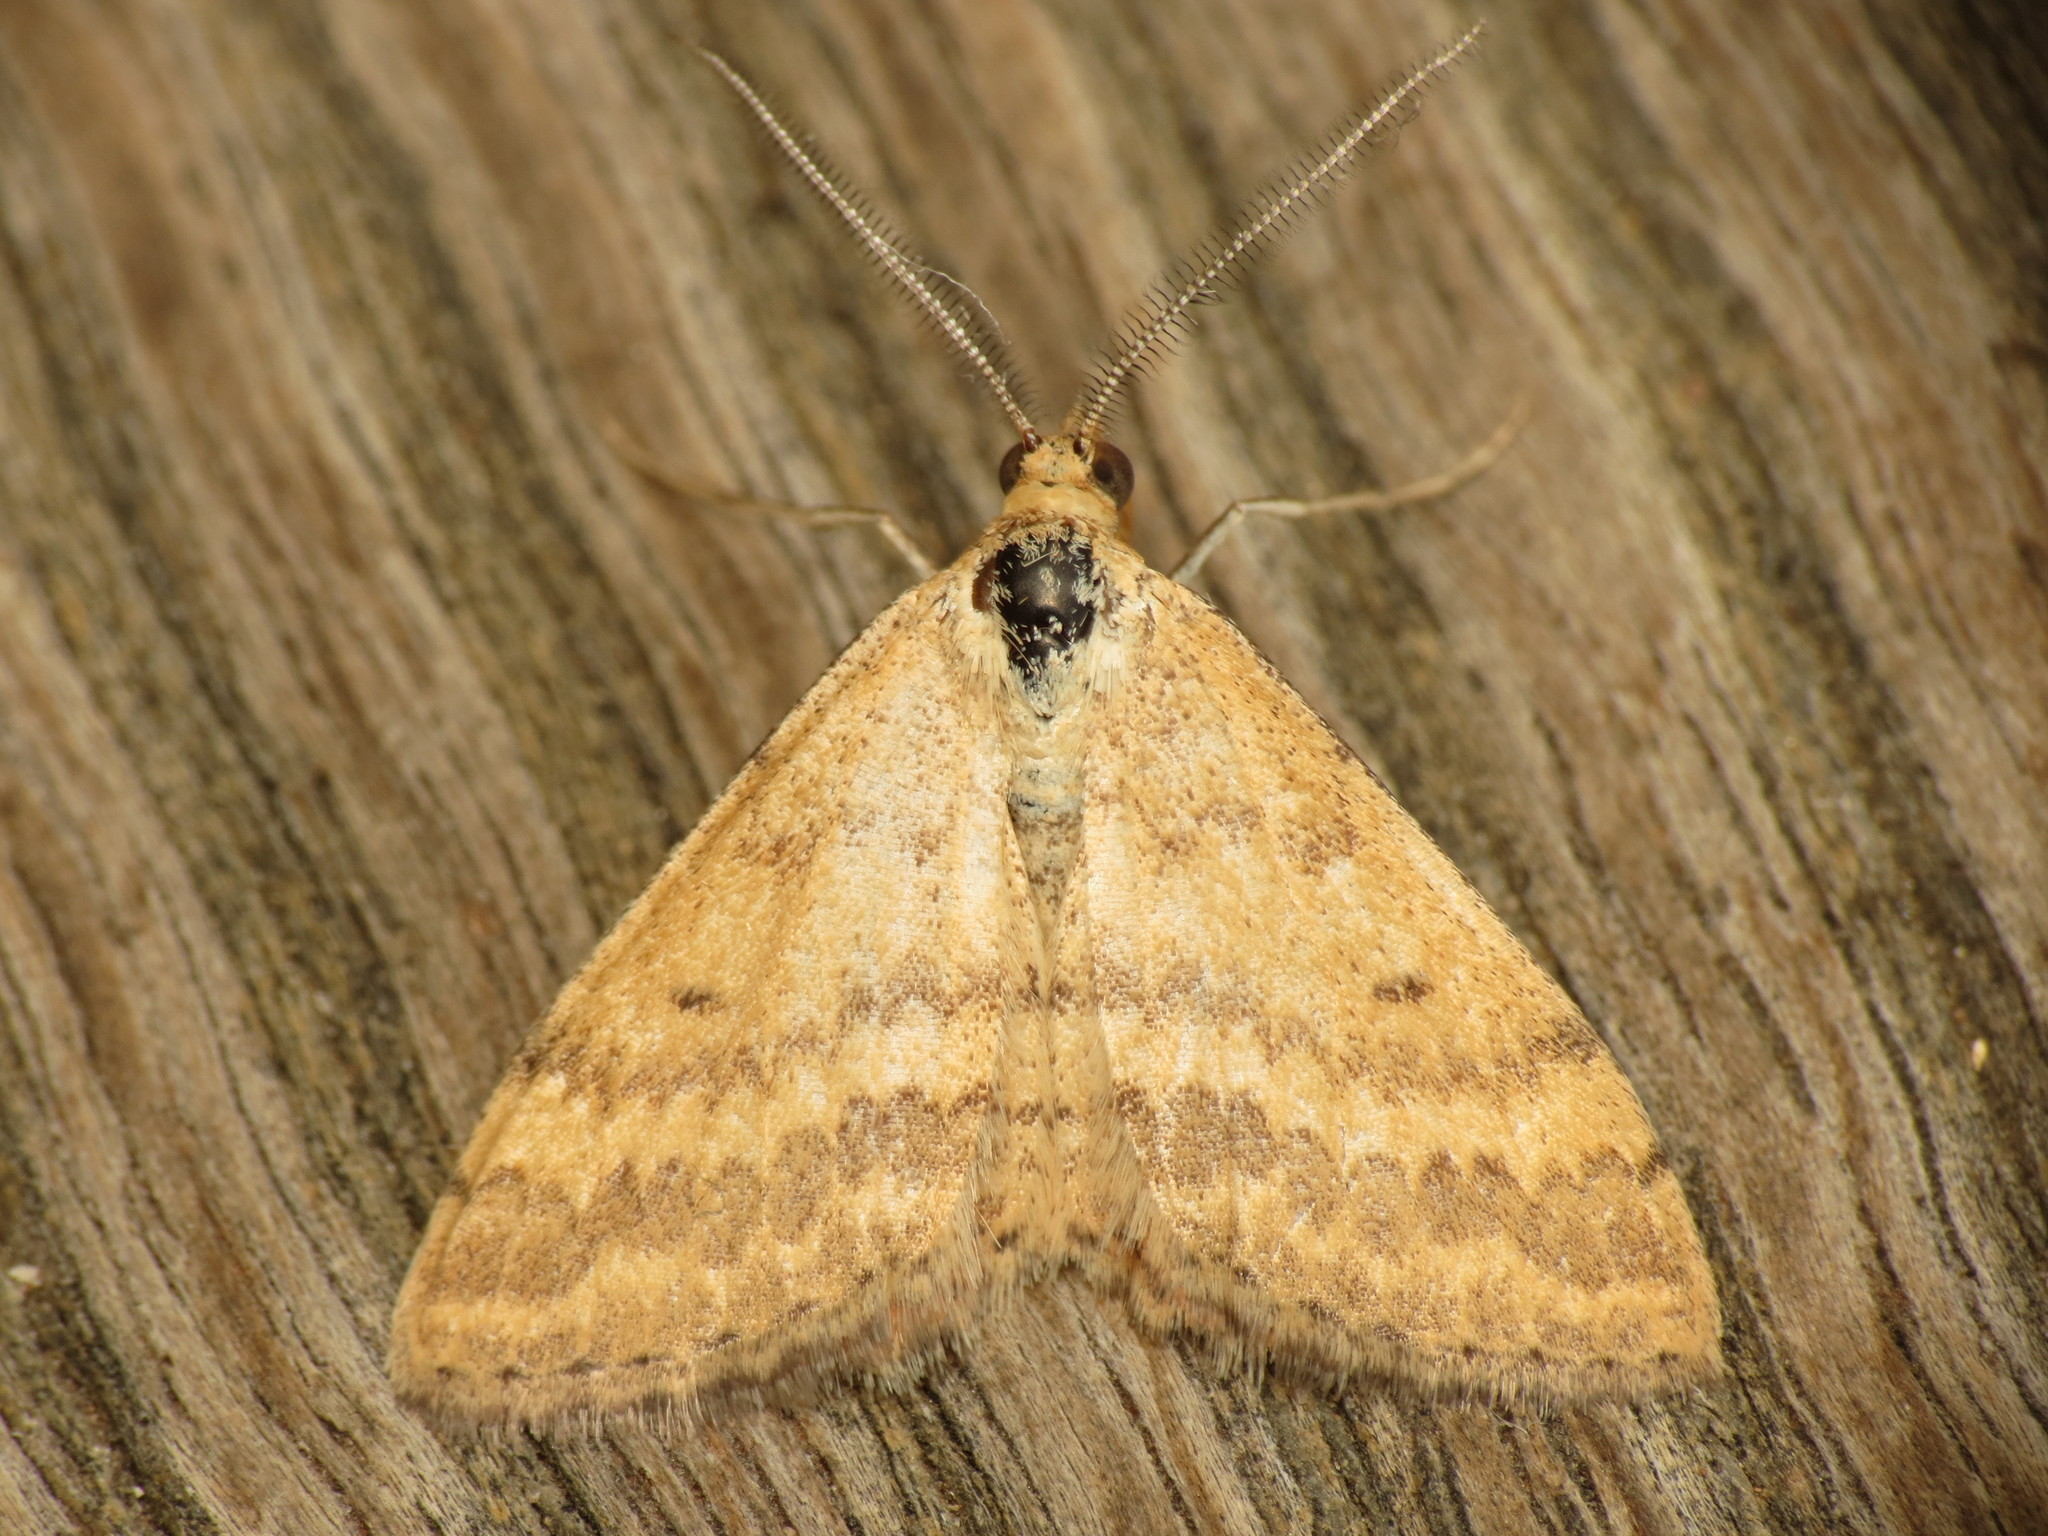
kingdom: Animalia
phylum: Arthropoda
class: Insecta
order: Lepidoptera
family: Geometridae
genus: Scopula
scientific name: Scopula rubraria
